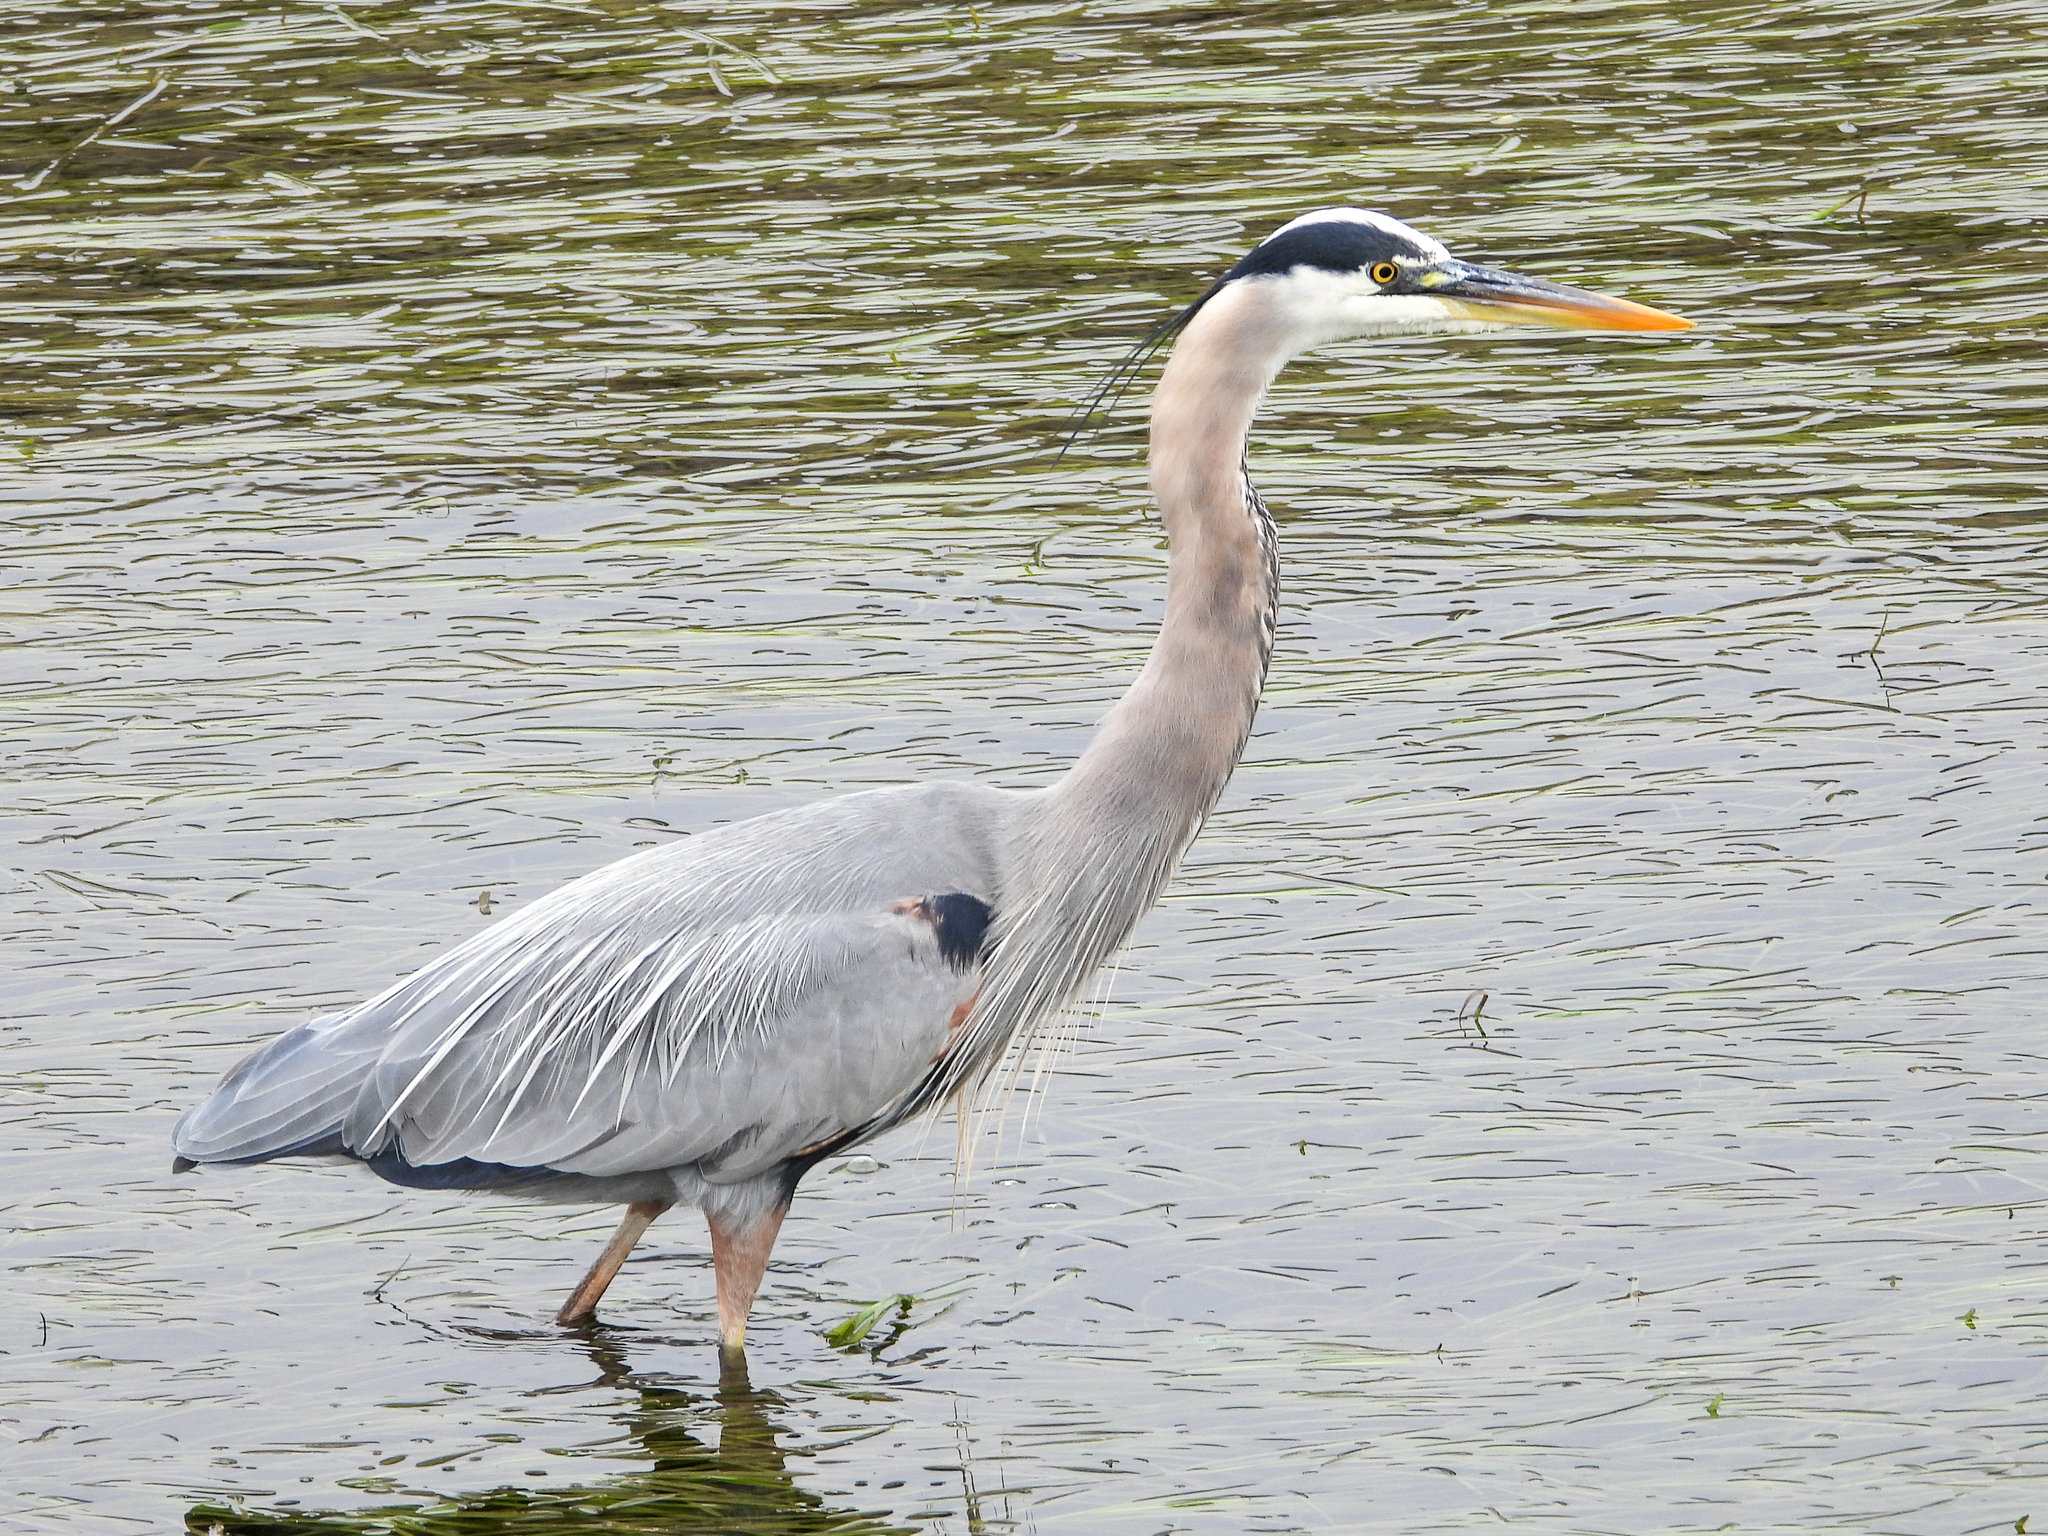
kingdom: Animalia
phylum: Chordata
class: Aves
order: Pelecaniformes
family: Ardeidae
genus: Ardea
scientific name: Ardea herodias
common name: Great blue heron
